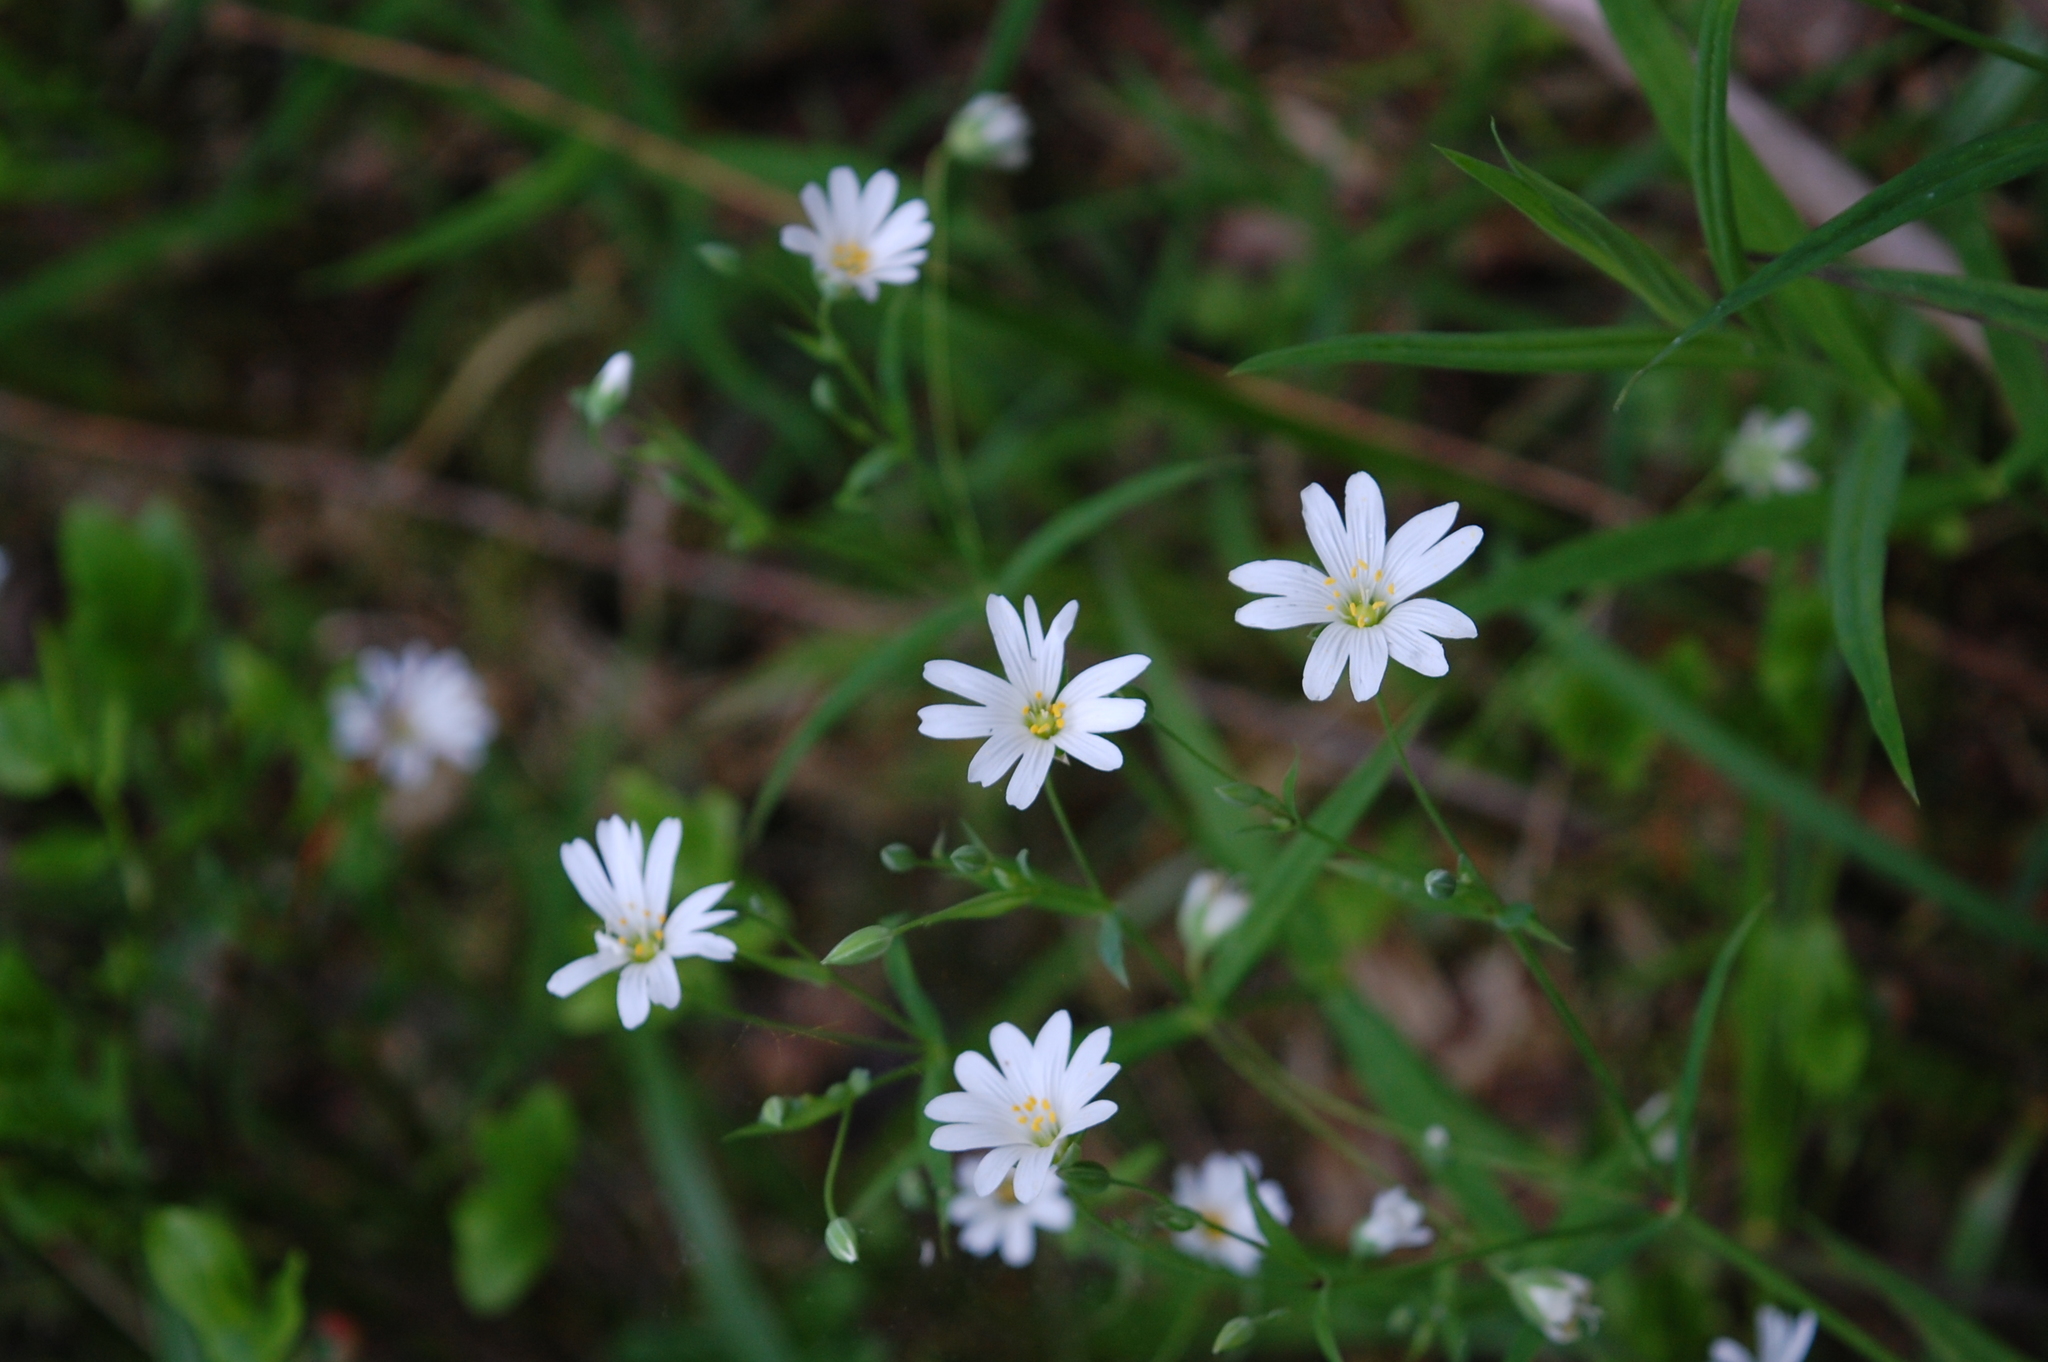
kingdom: Plantae
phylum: Tracheophyta
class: Magnoliopsida
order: Caryophyllales
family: Caryophyllaceae
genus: Rabelera
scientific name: Rabelera holostea
